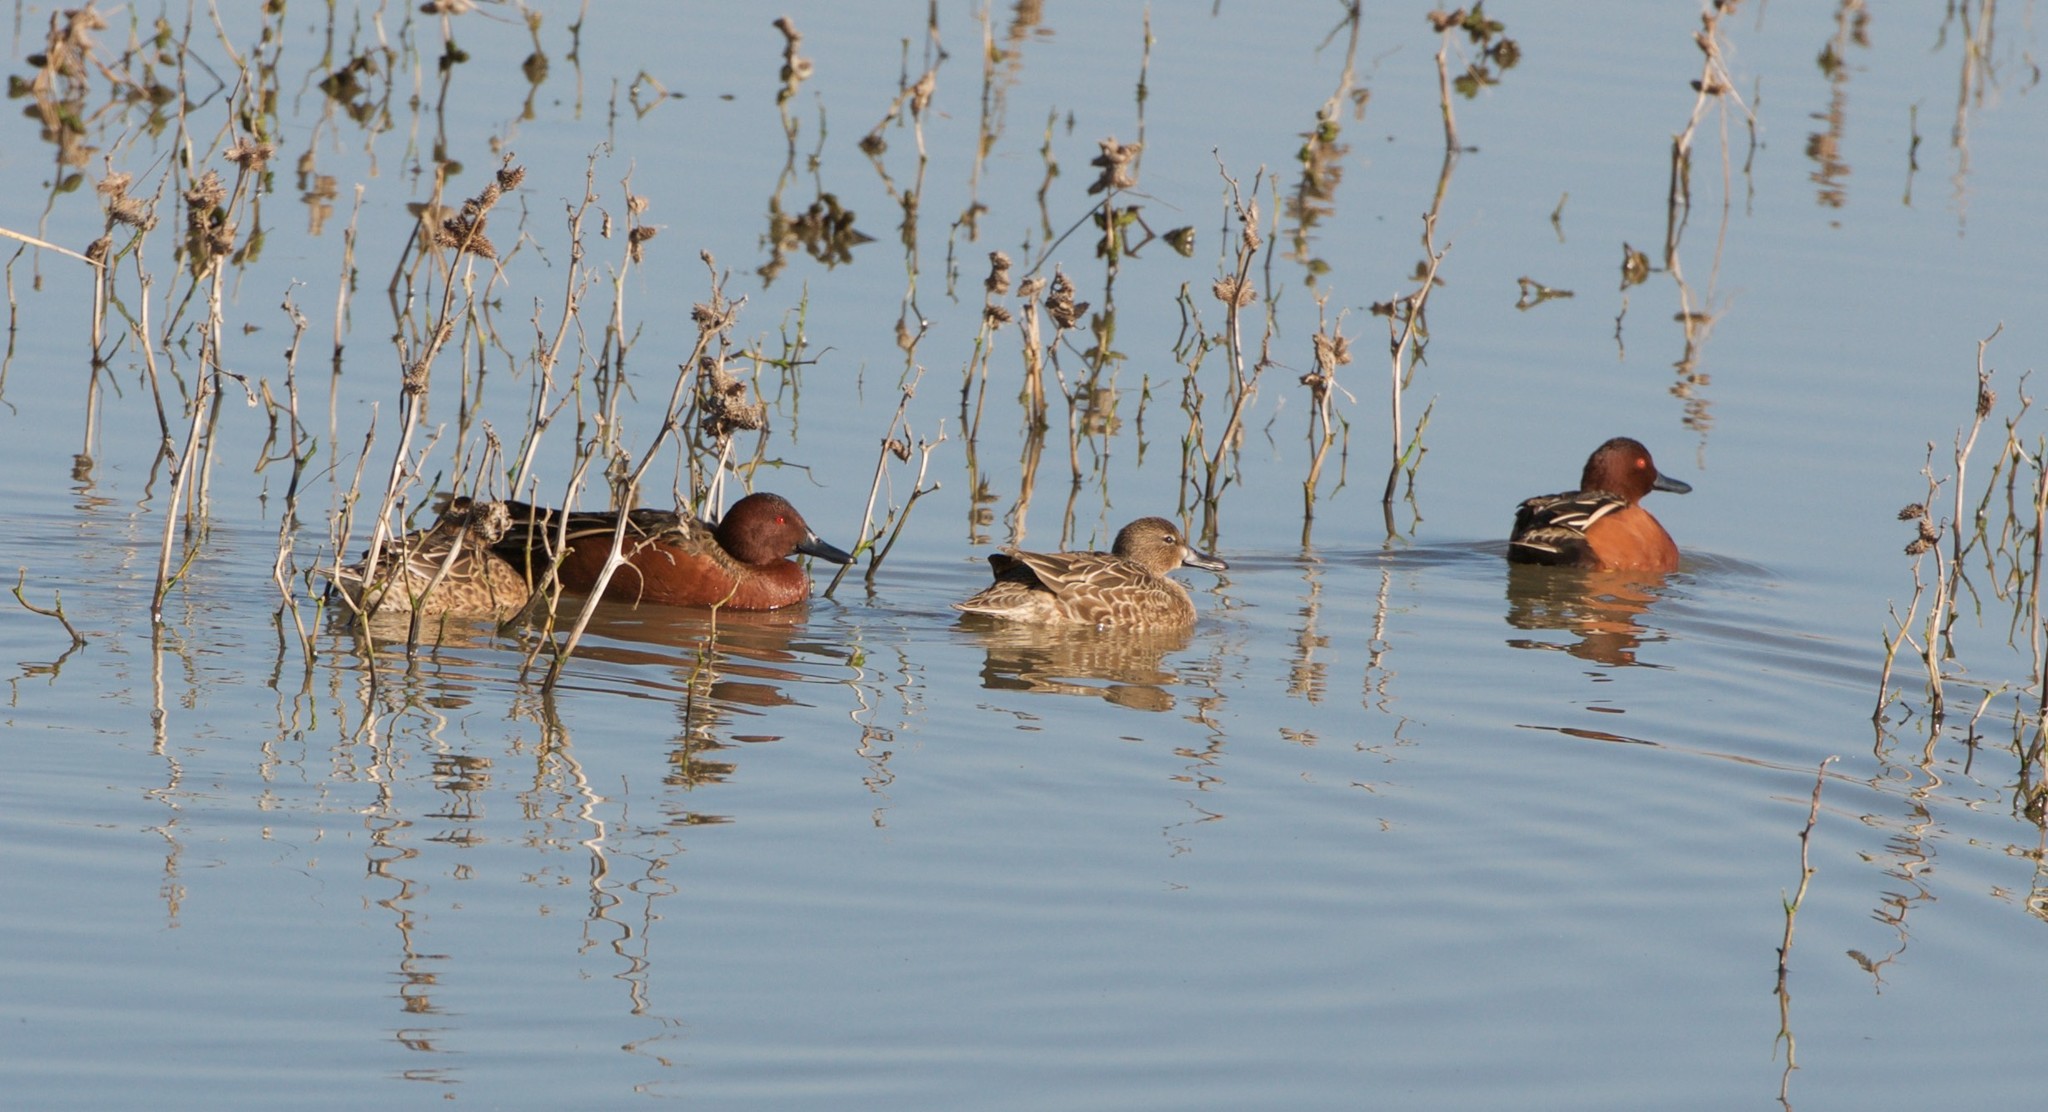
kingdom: Animalia
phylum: Chordata
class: Aves
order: Anseriformes
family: Anatidae
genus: Spatula
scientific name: Spatula cyanoptera
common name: Cinnamon teal
